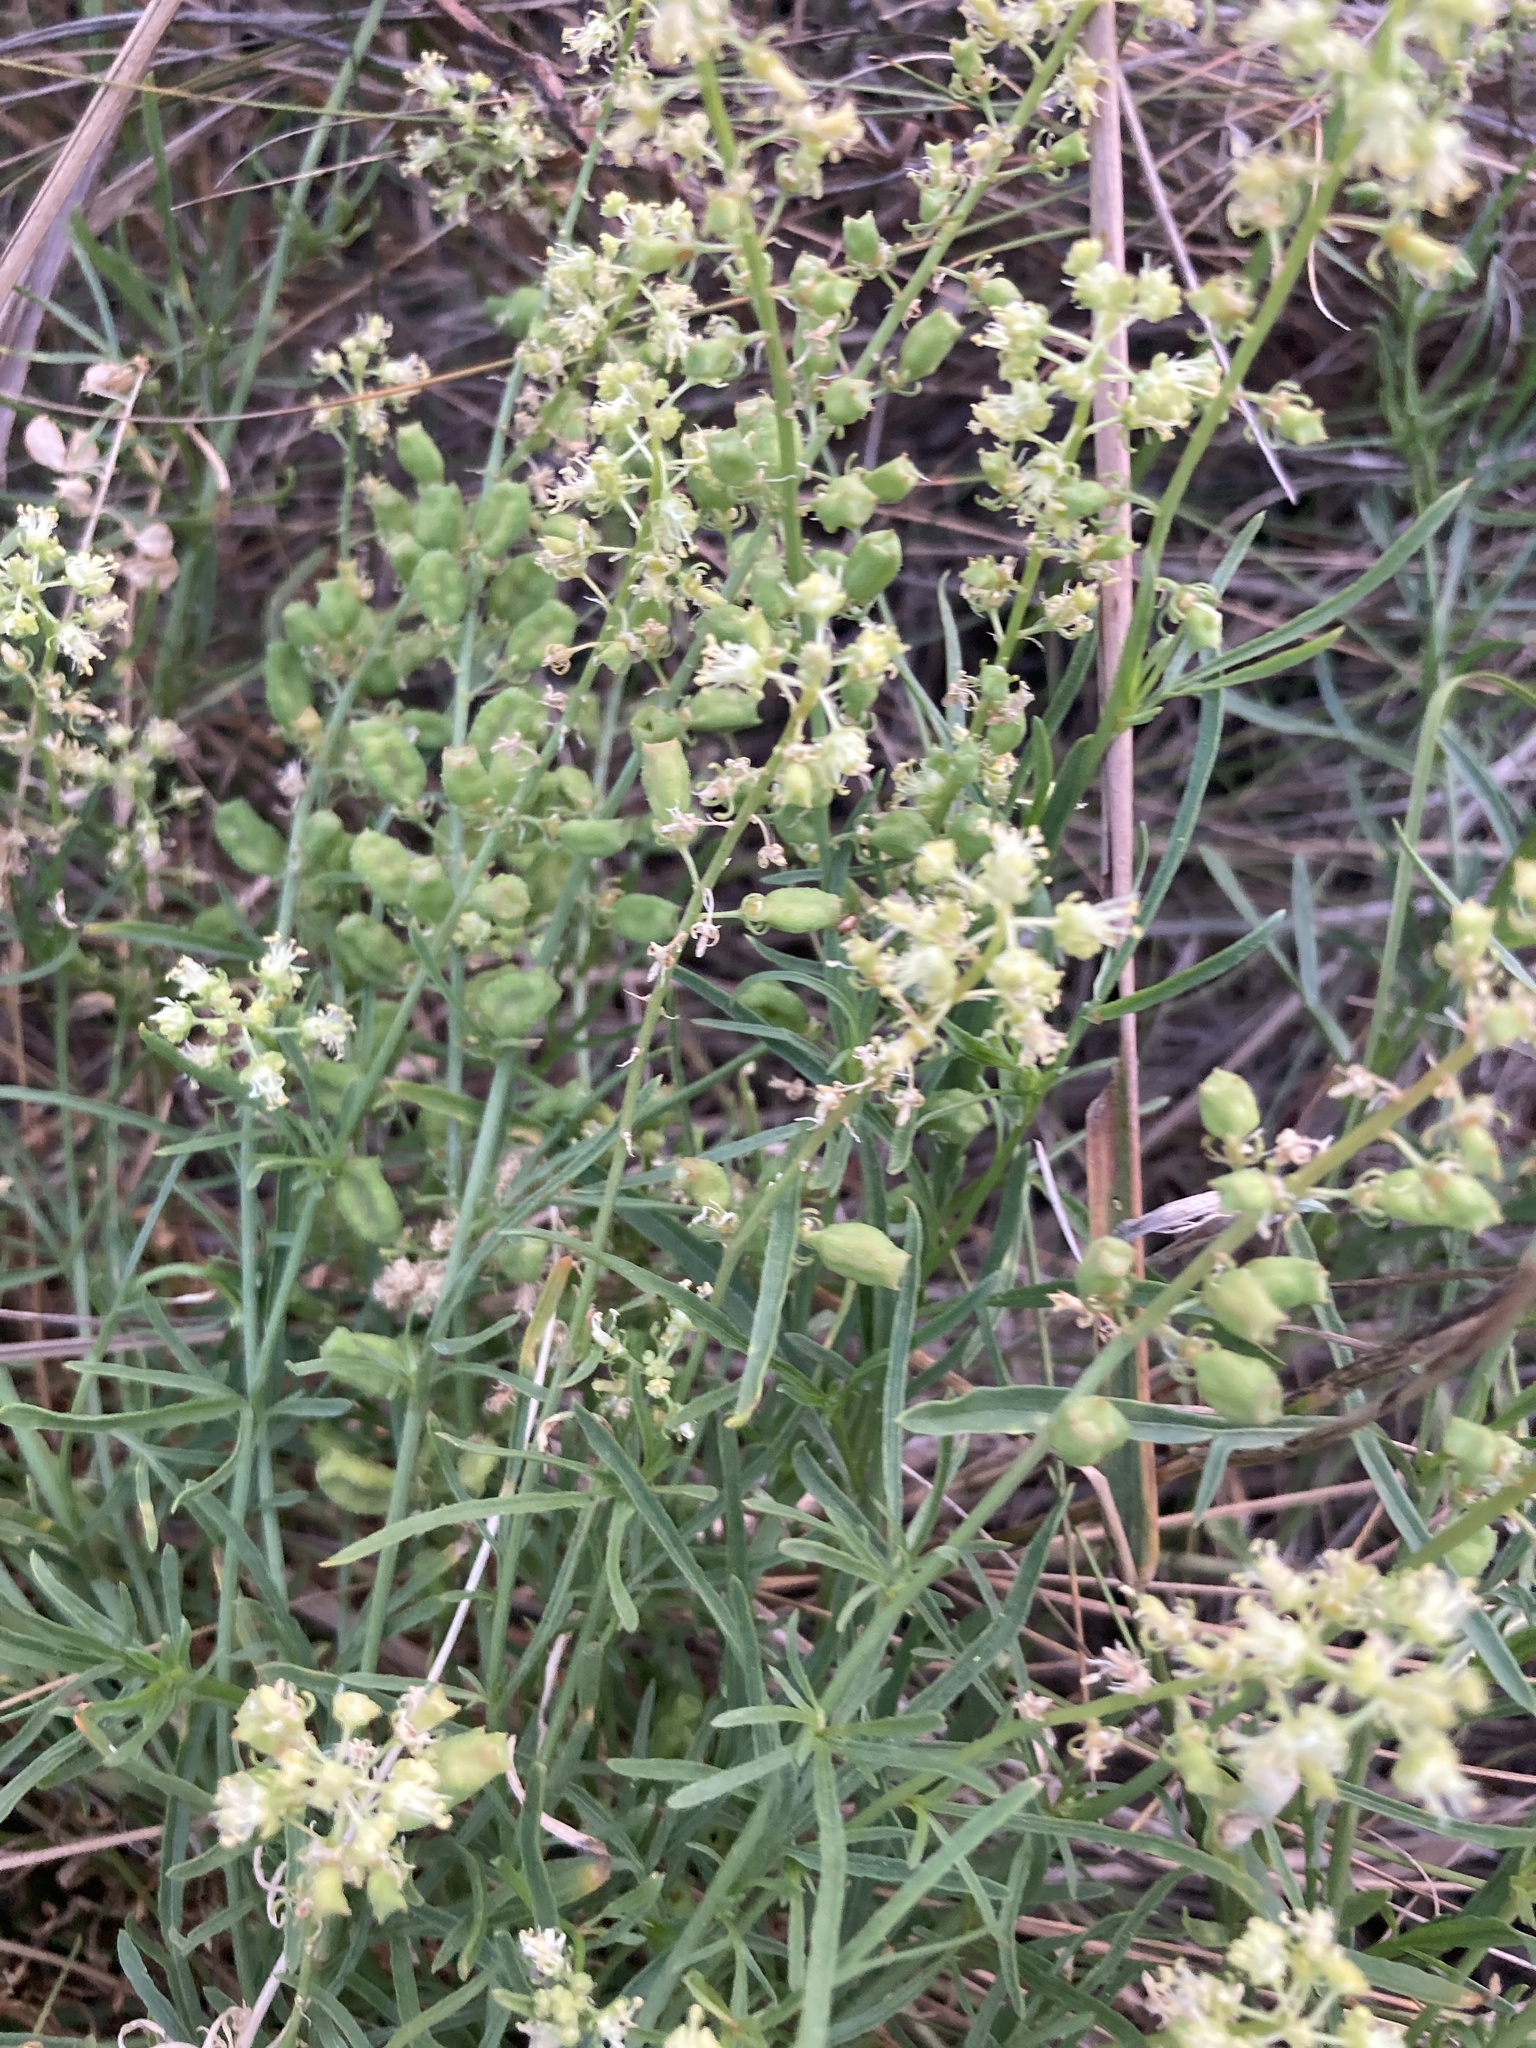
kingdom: Plantae
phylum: Tracheophyta
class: Magnoliopsida
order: Brassicales
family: Resedaceae
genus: Reseda
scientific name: Reseda lutea
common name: Wild mignonette
